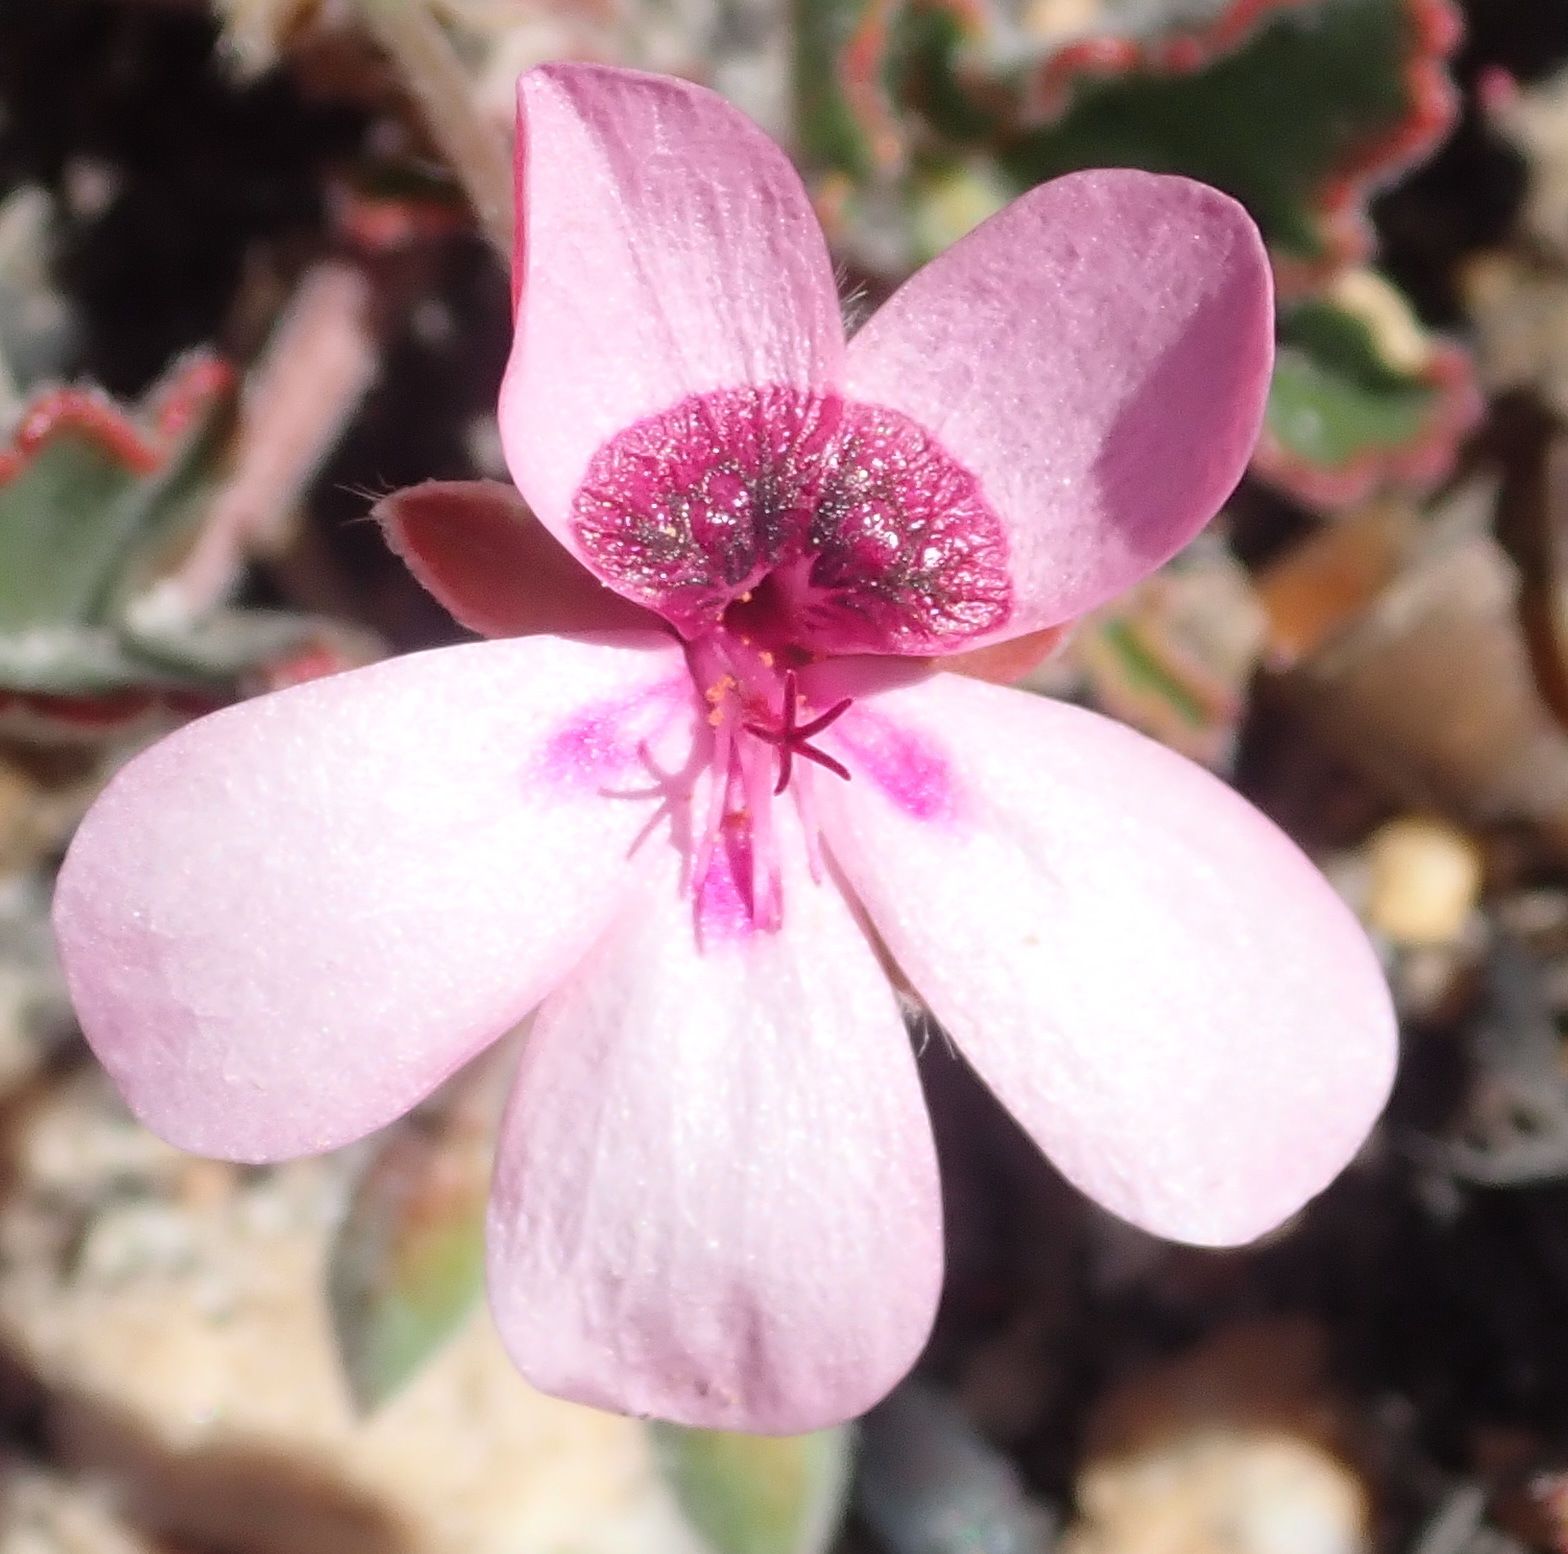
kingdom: Plantae
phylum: Tracheophyta
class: Magnoliopsida
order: Geraniales
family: Geraniaceae
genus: Pelargonium
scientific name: Pelargonium burgerianum
